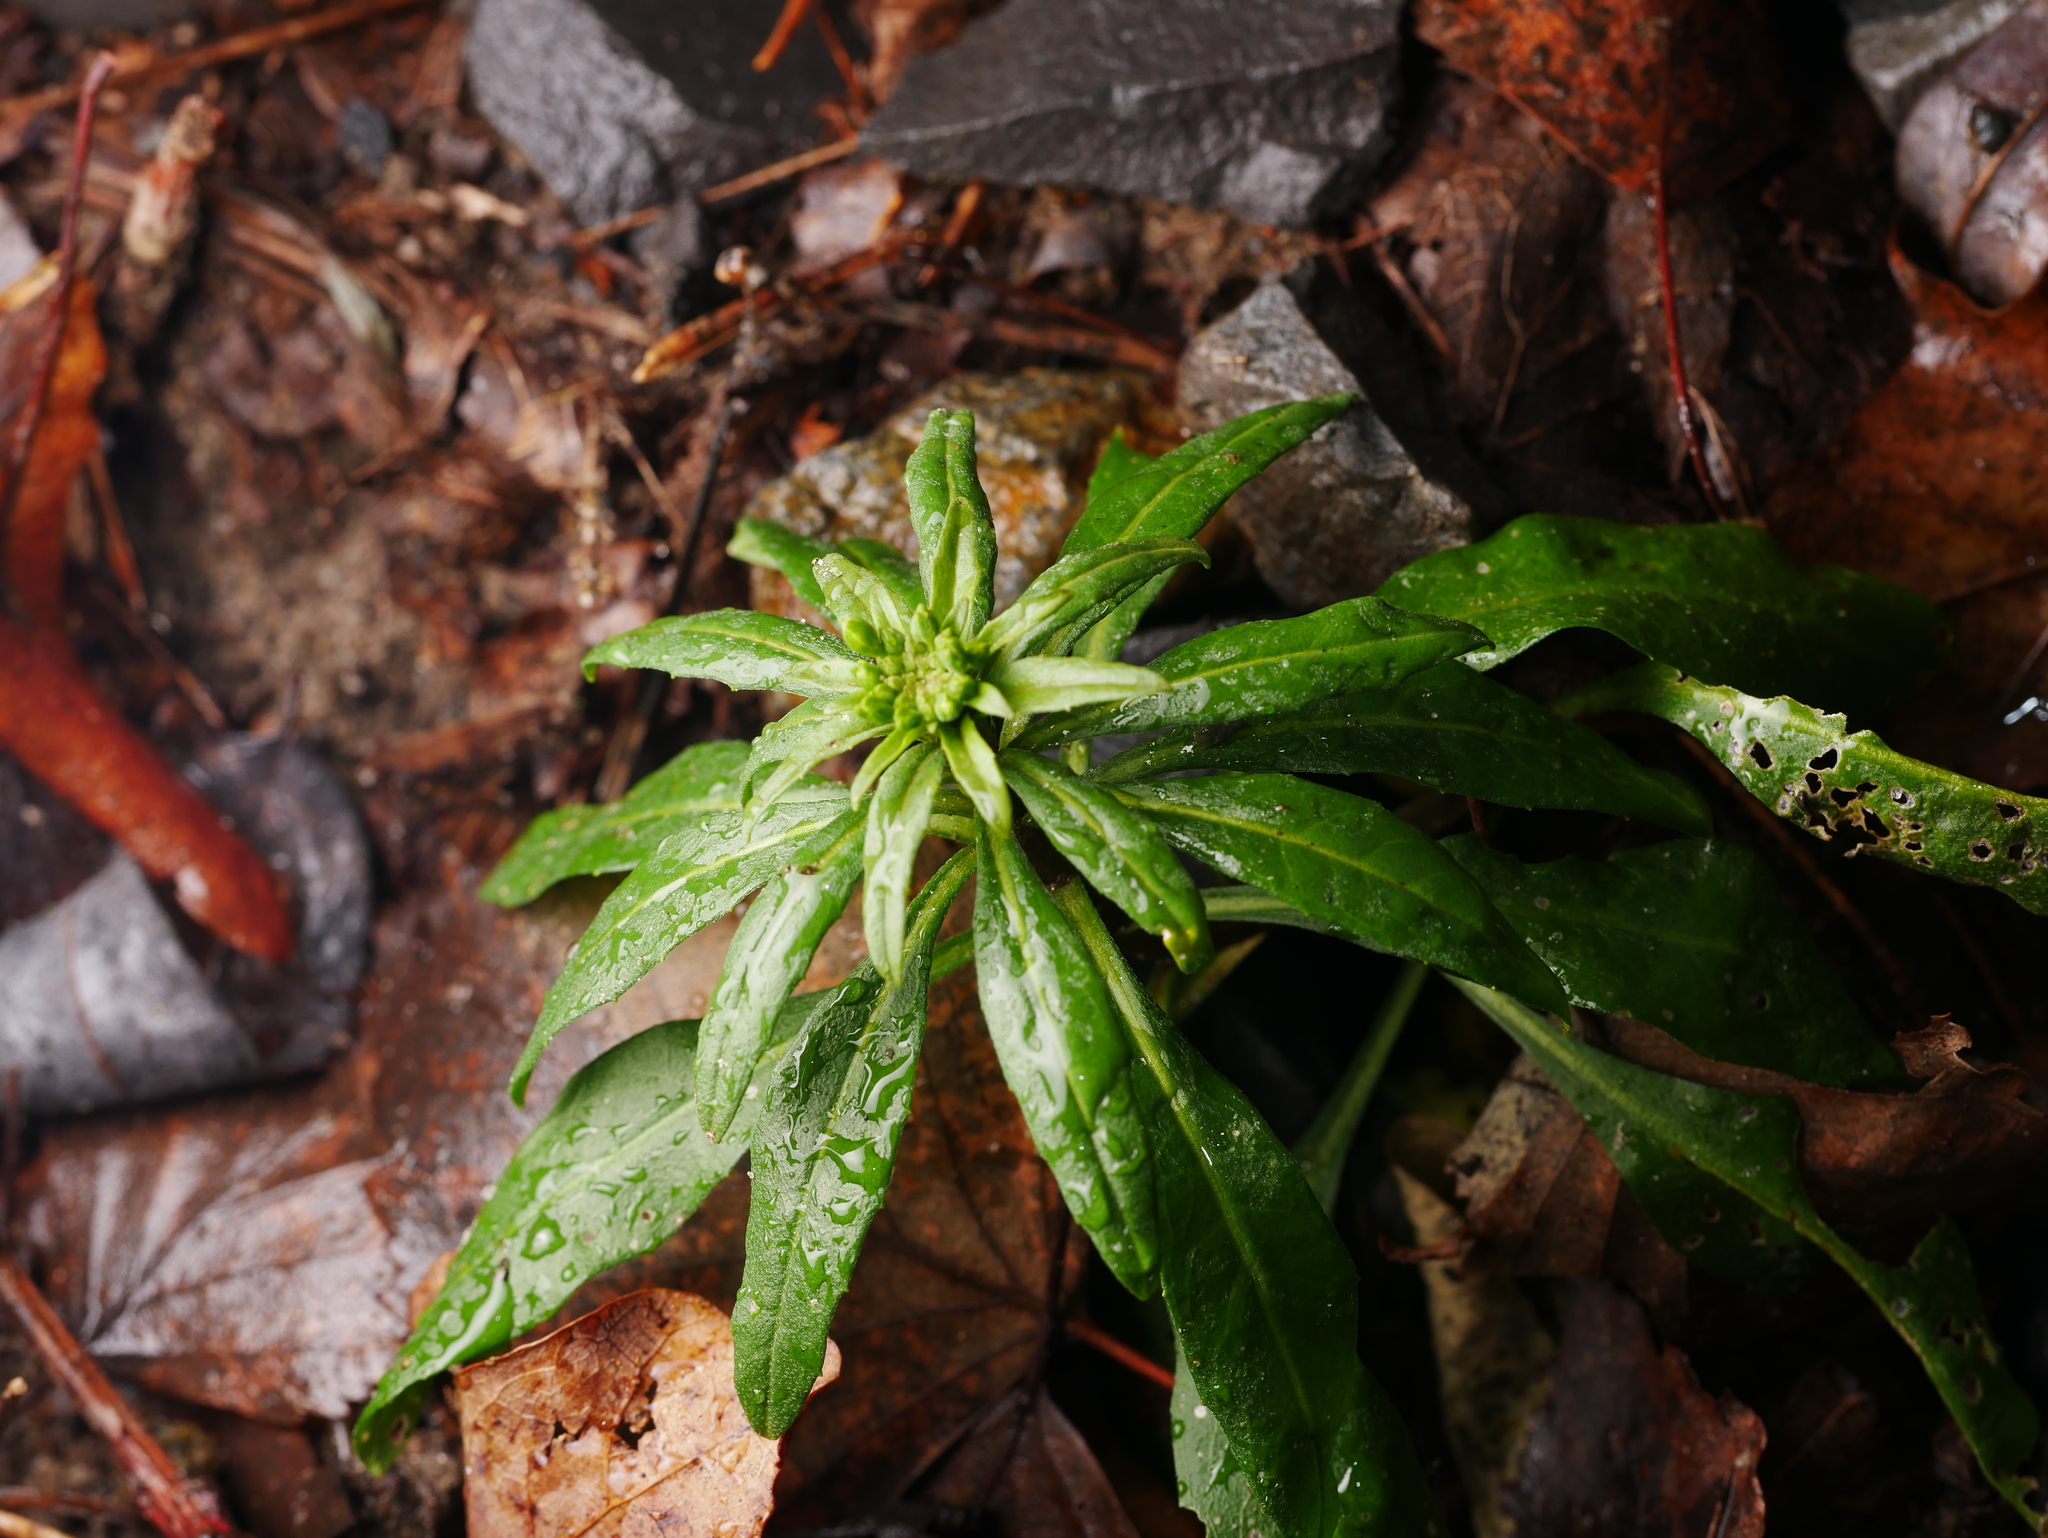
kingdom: Plantae
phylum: Tracheophyta
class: Magnoliopsida
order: Brassicales
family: Brassicaceae
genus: Erysimum
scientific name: Erysimum cheiranthoides
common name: Treacle mustard
